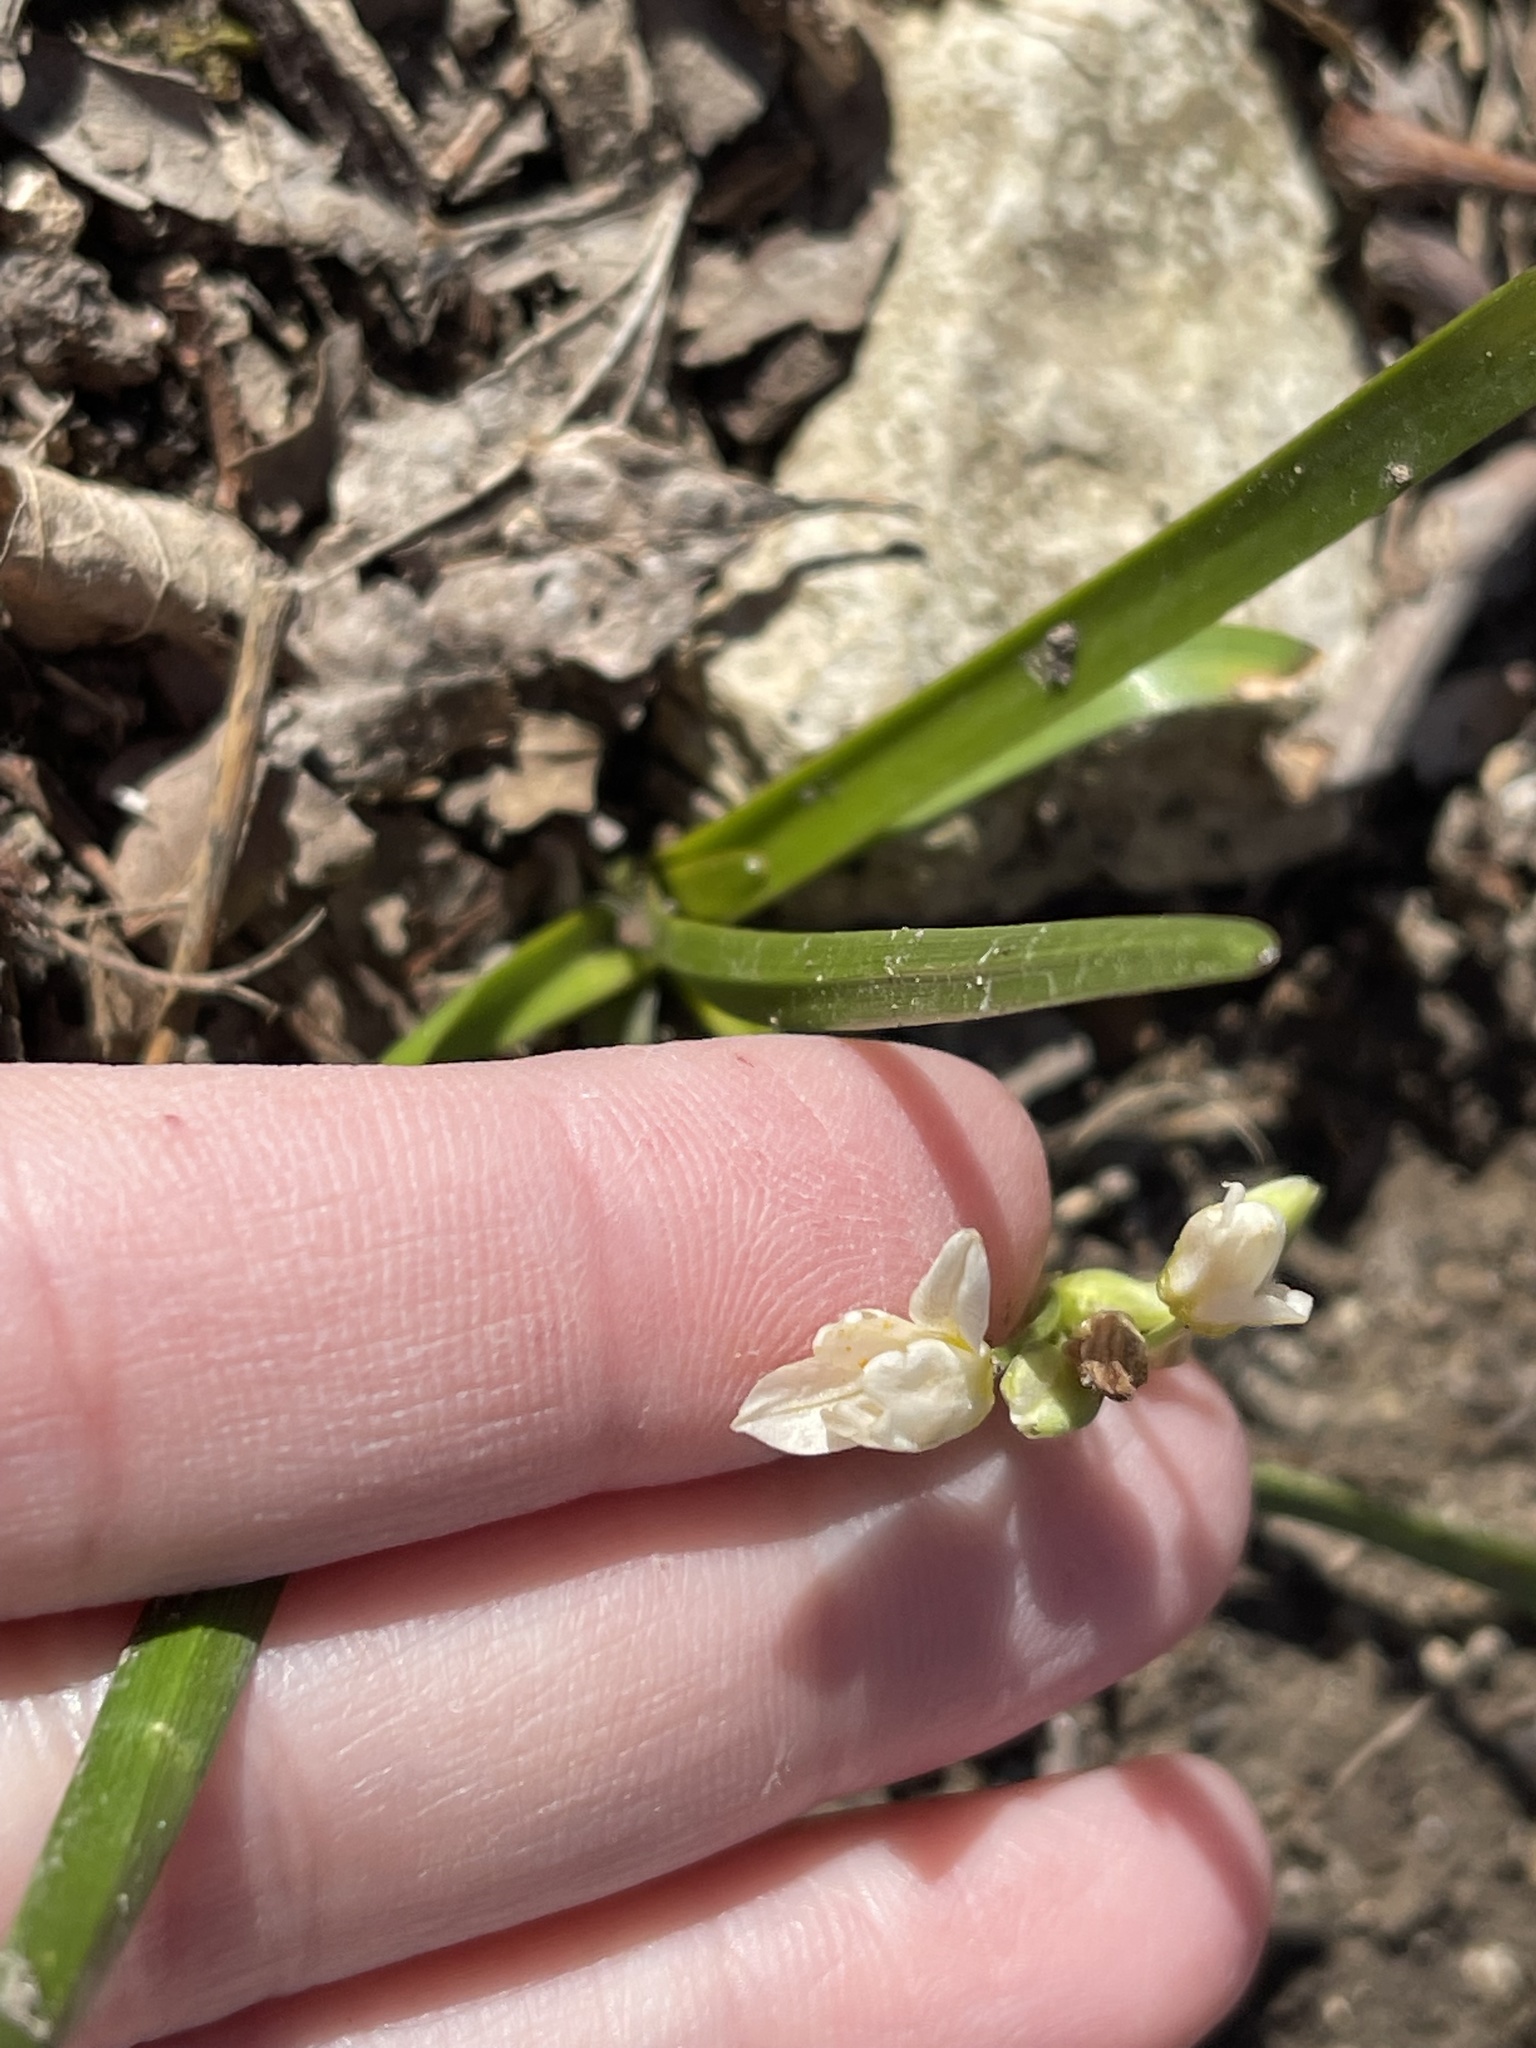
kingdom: Plantae
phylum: Tracheophyta
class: Liliopsida
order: Asparagales
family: Amaryllidaceae
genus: Nothoscordum
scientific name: Nothoscordum bivalve
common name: Crow-poison
